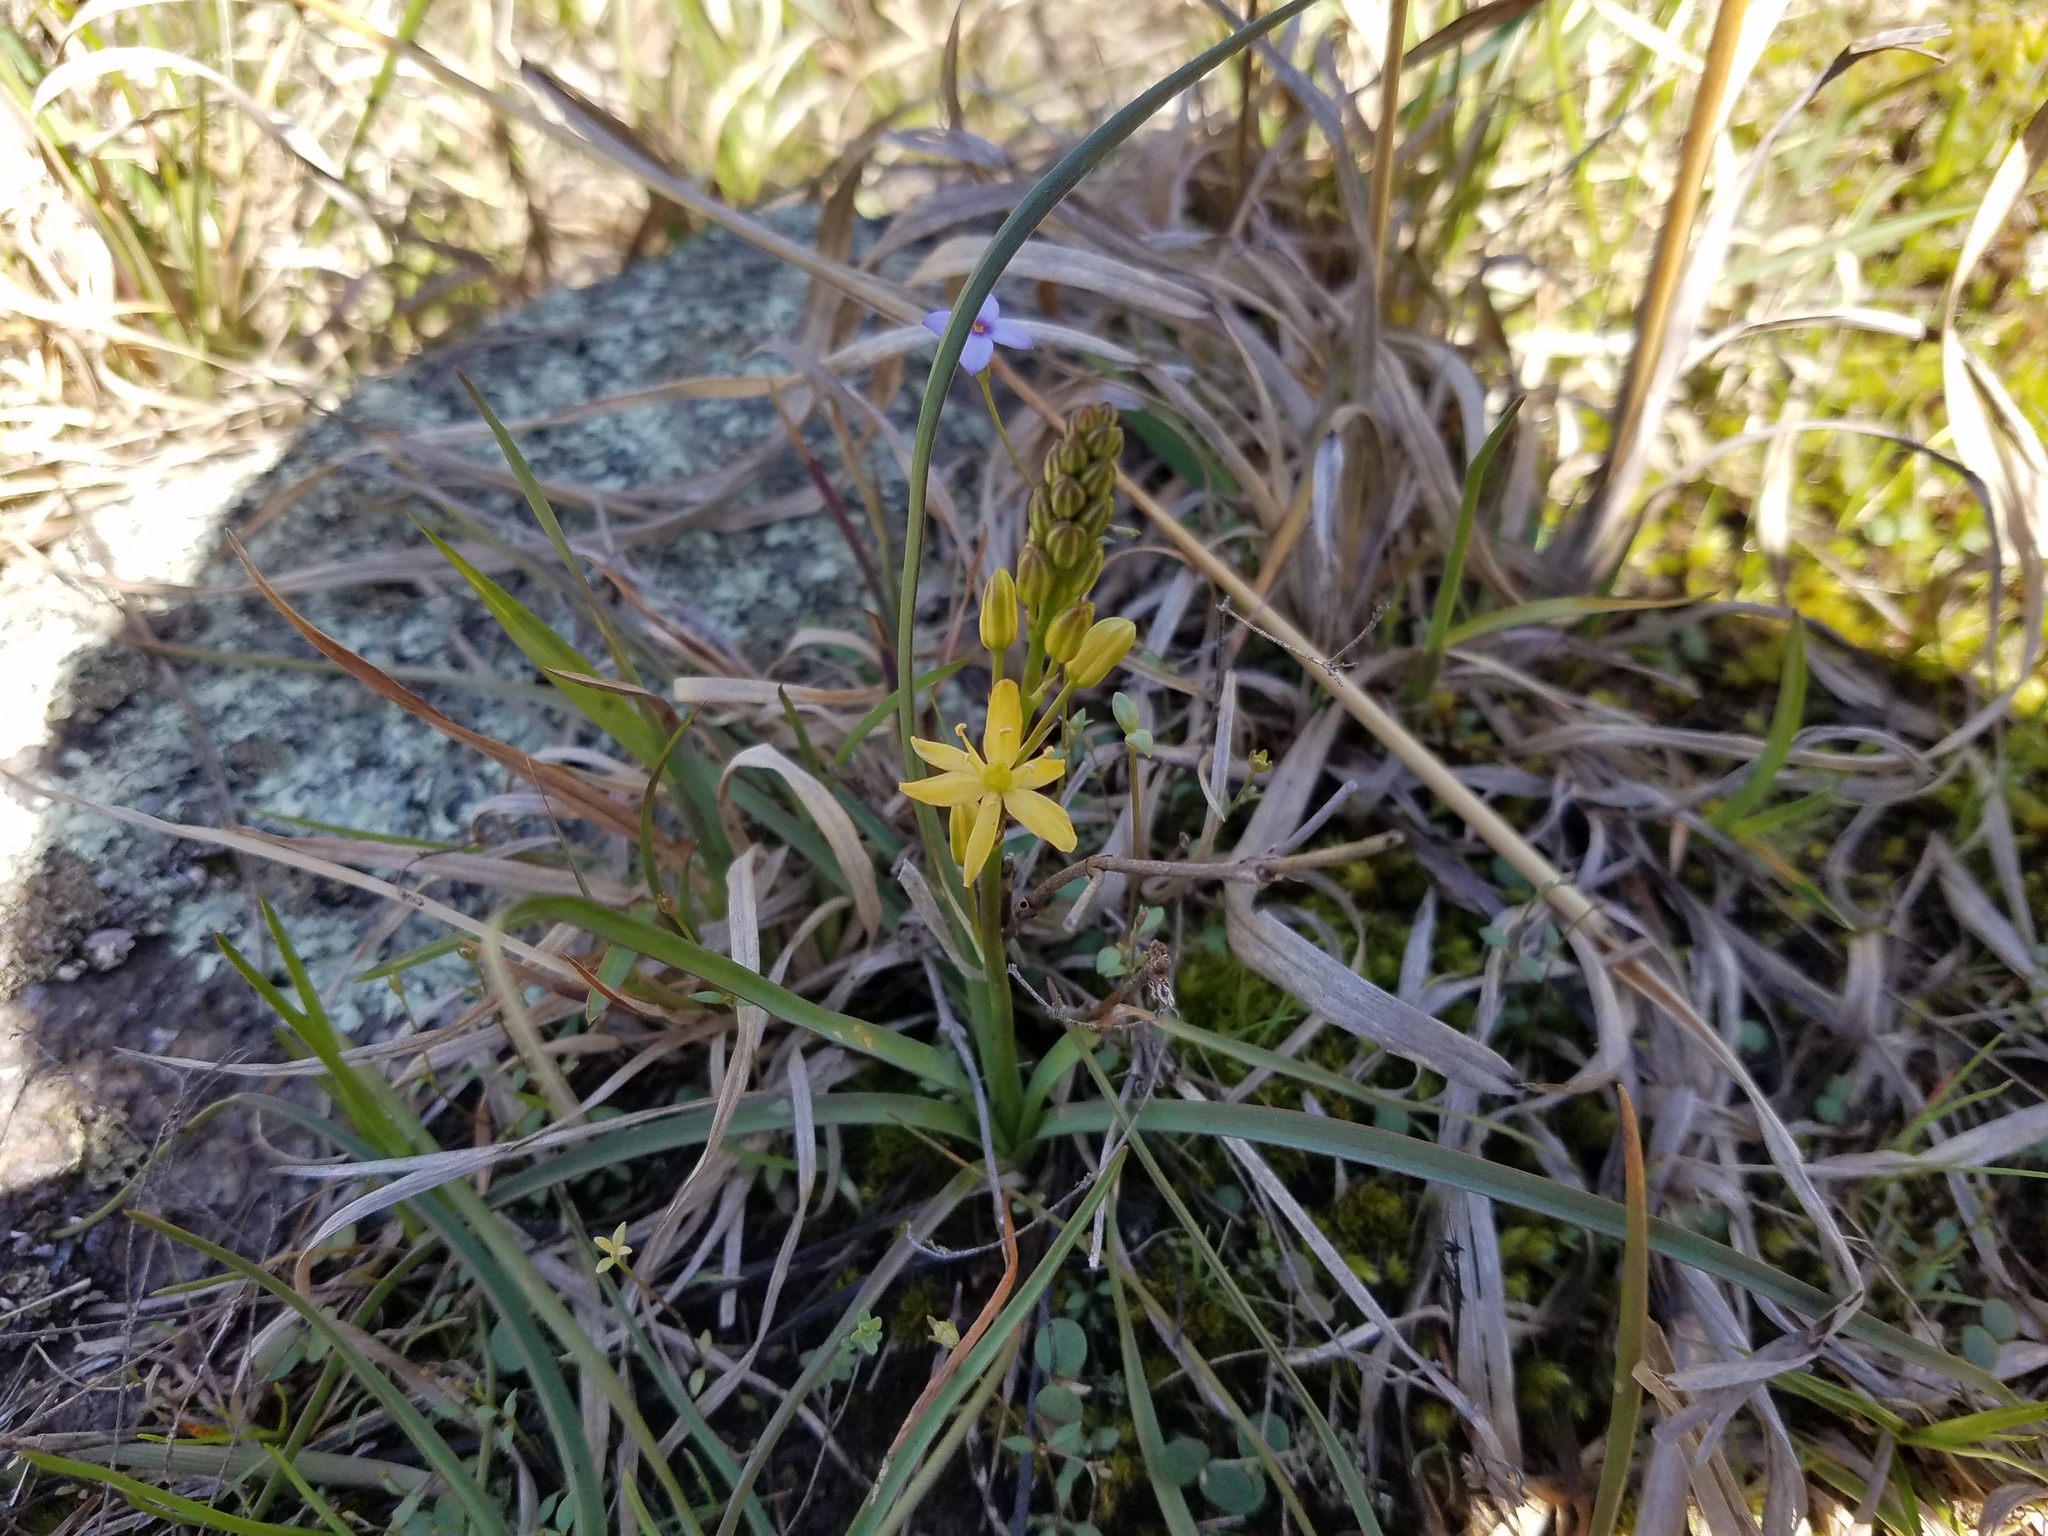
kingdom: Plantae
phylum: Tracheophyta
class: Liliopsida
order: Asparagales
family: Asparagaceae
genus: Schoenolirion
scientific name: Schoenolirion croceum
